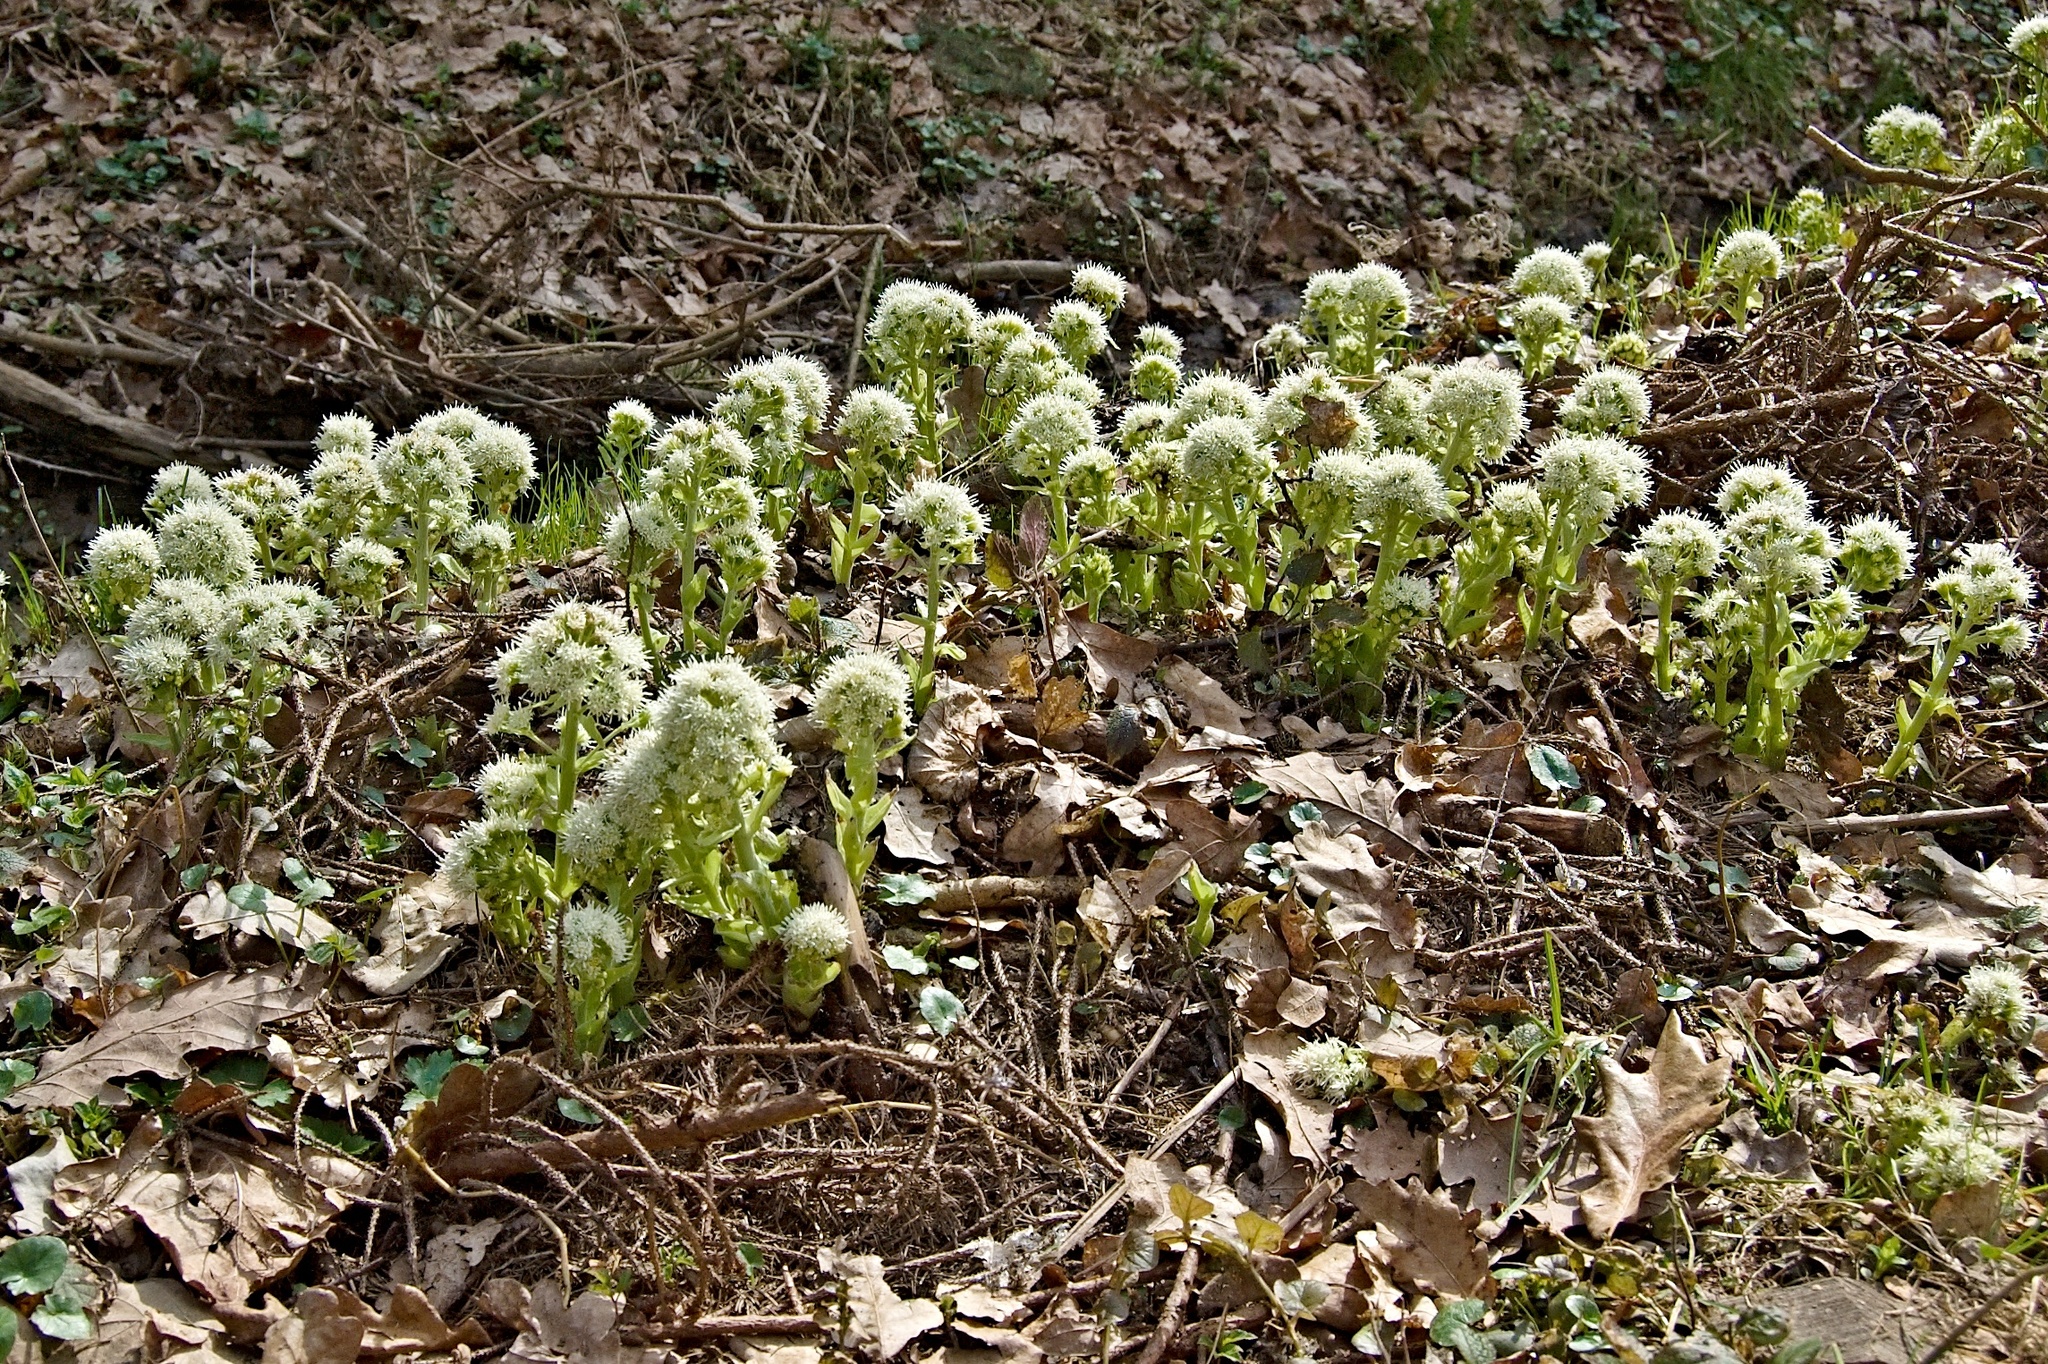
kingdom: Plantae
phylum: Tracheophyta
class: Magnoliopsida
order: Asterales
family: Asteraceae
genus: Petasites
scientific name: Petasites albus
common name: White butterbur
